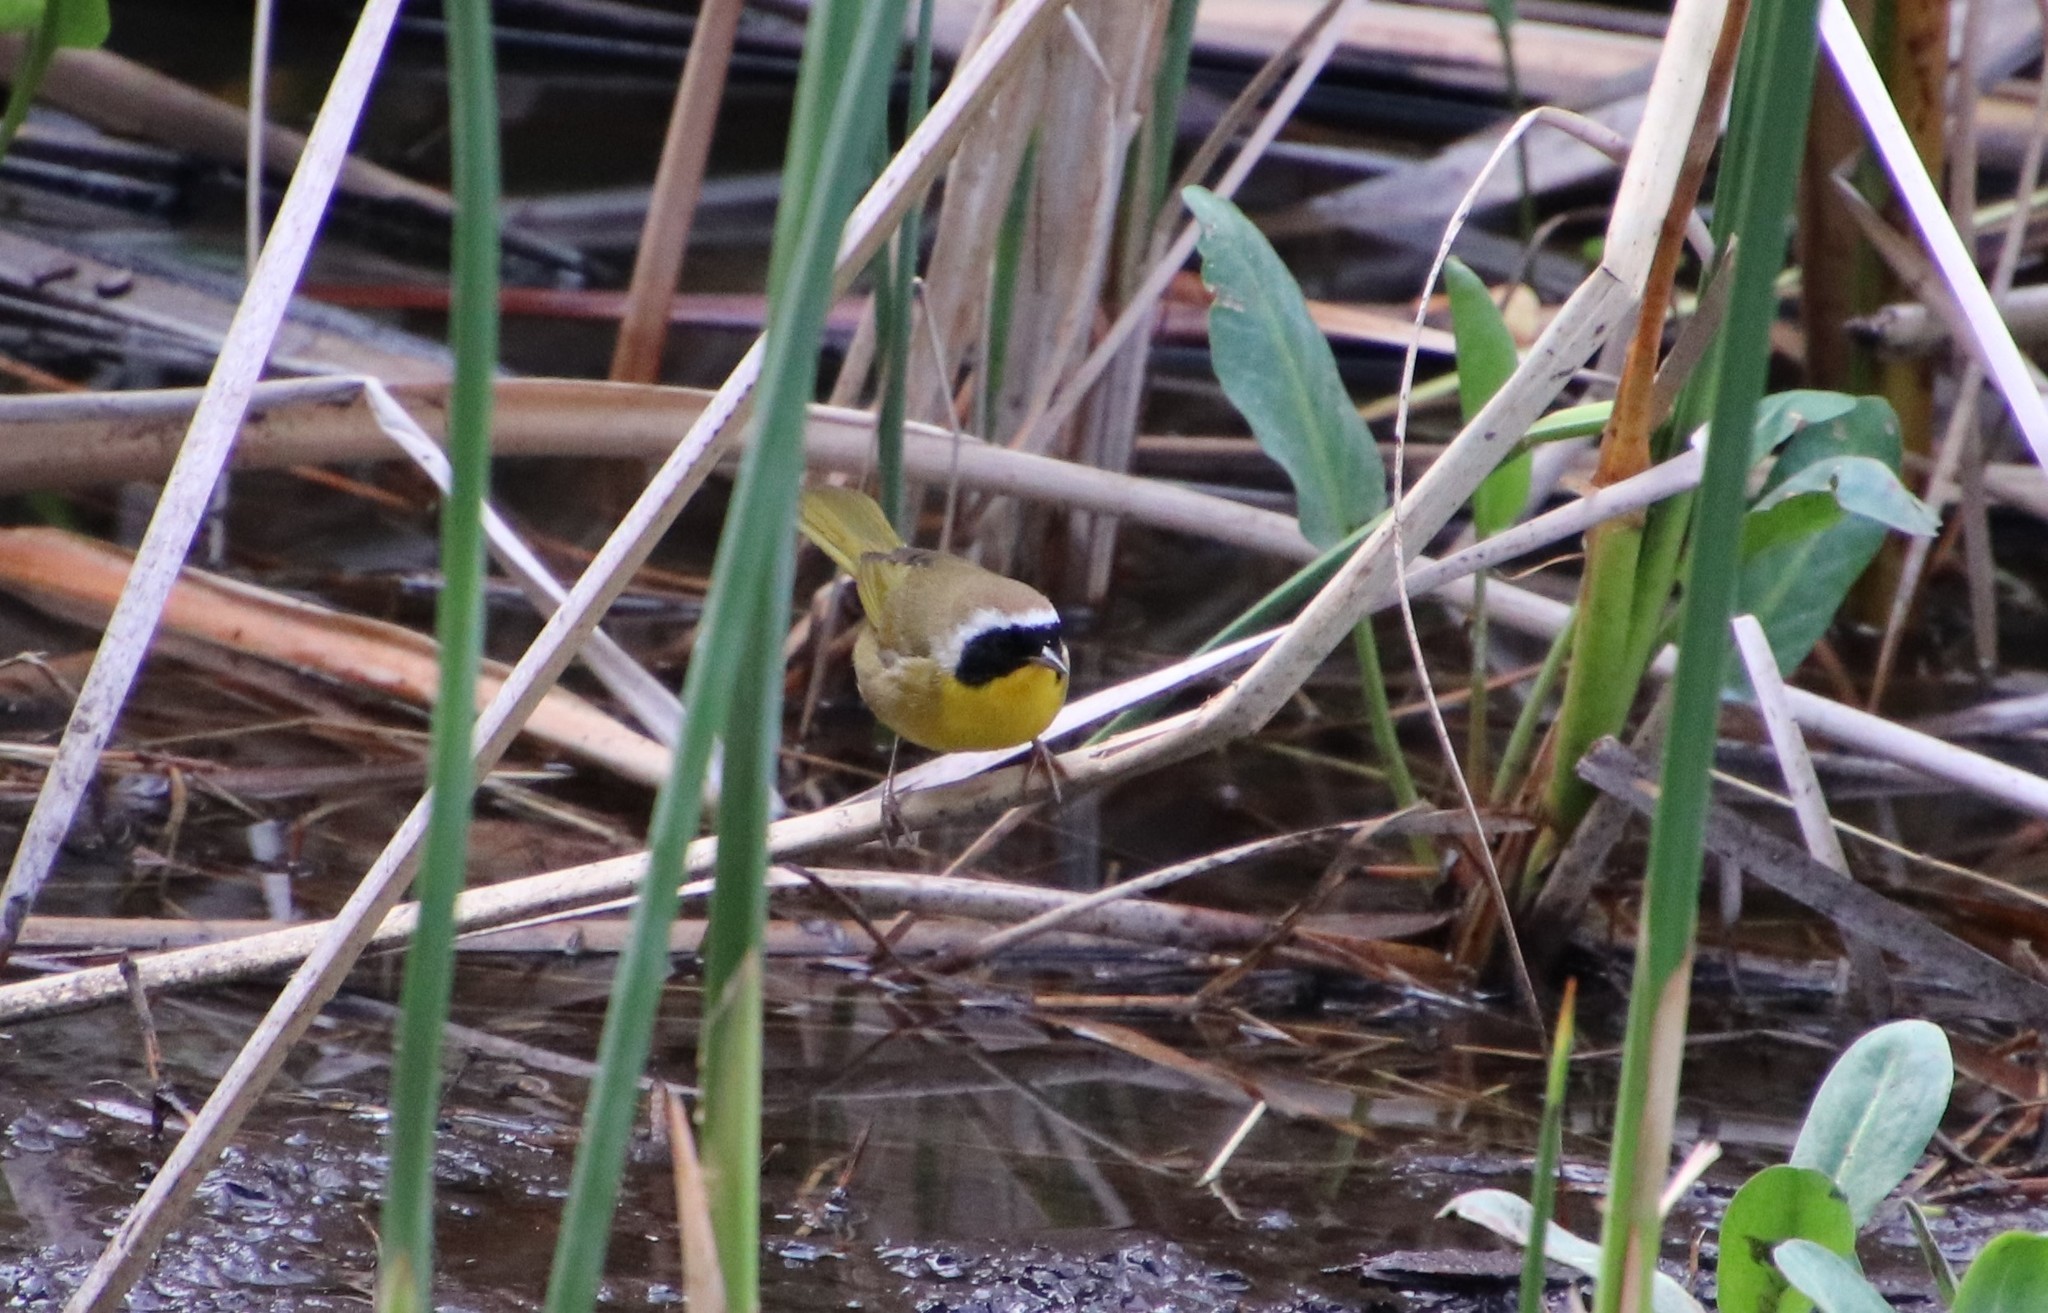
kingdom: Animalia
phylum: Chordata
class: Aves
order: Passeriformes
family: Parulidae
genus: Geothlypis
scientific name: Geothlypis trichas
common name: Common yellowthroat
